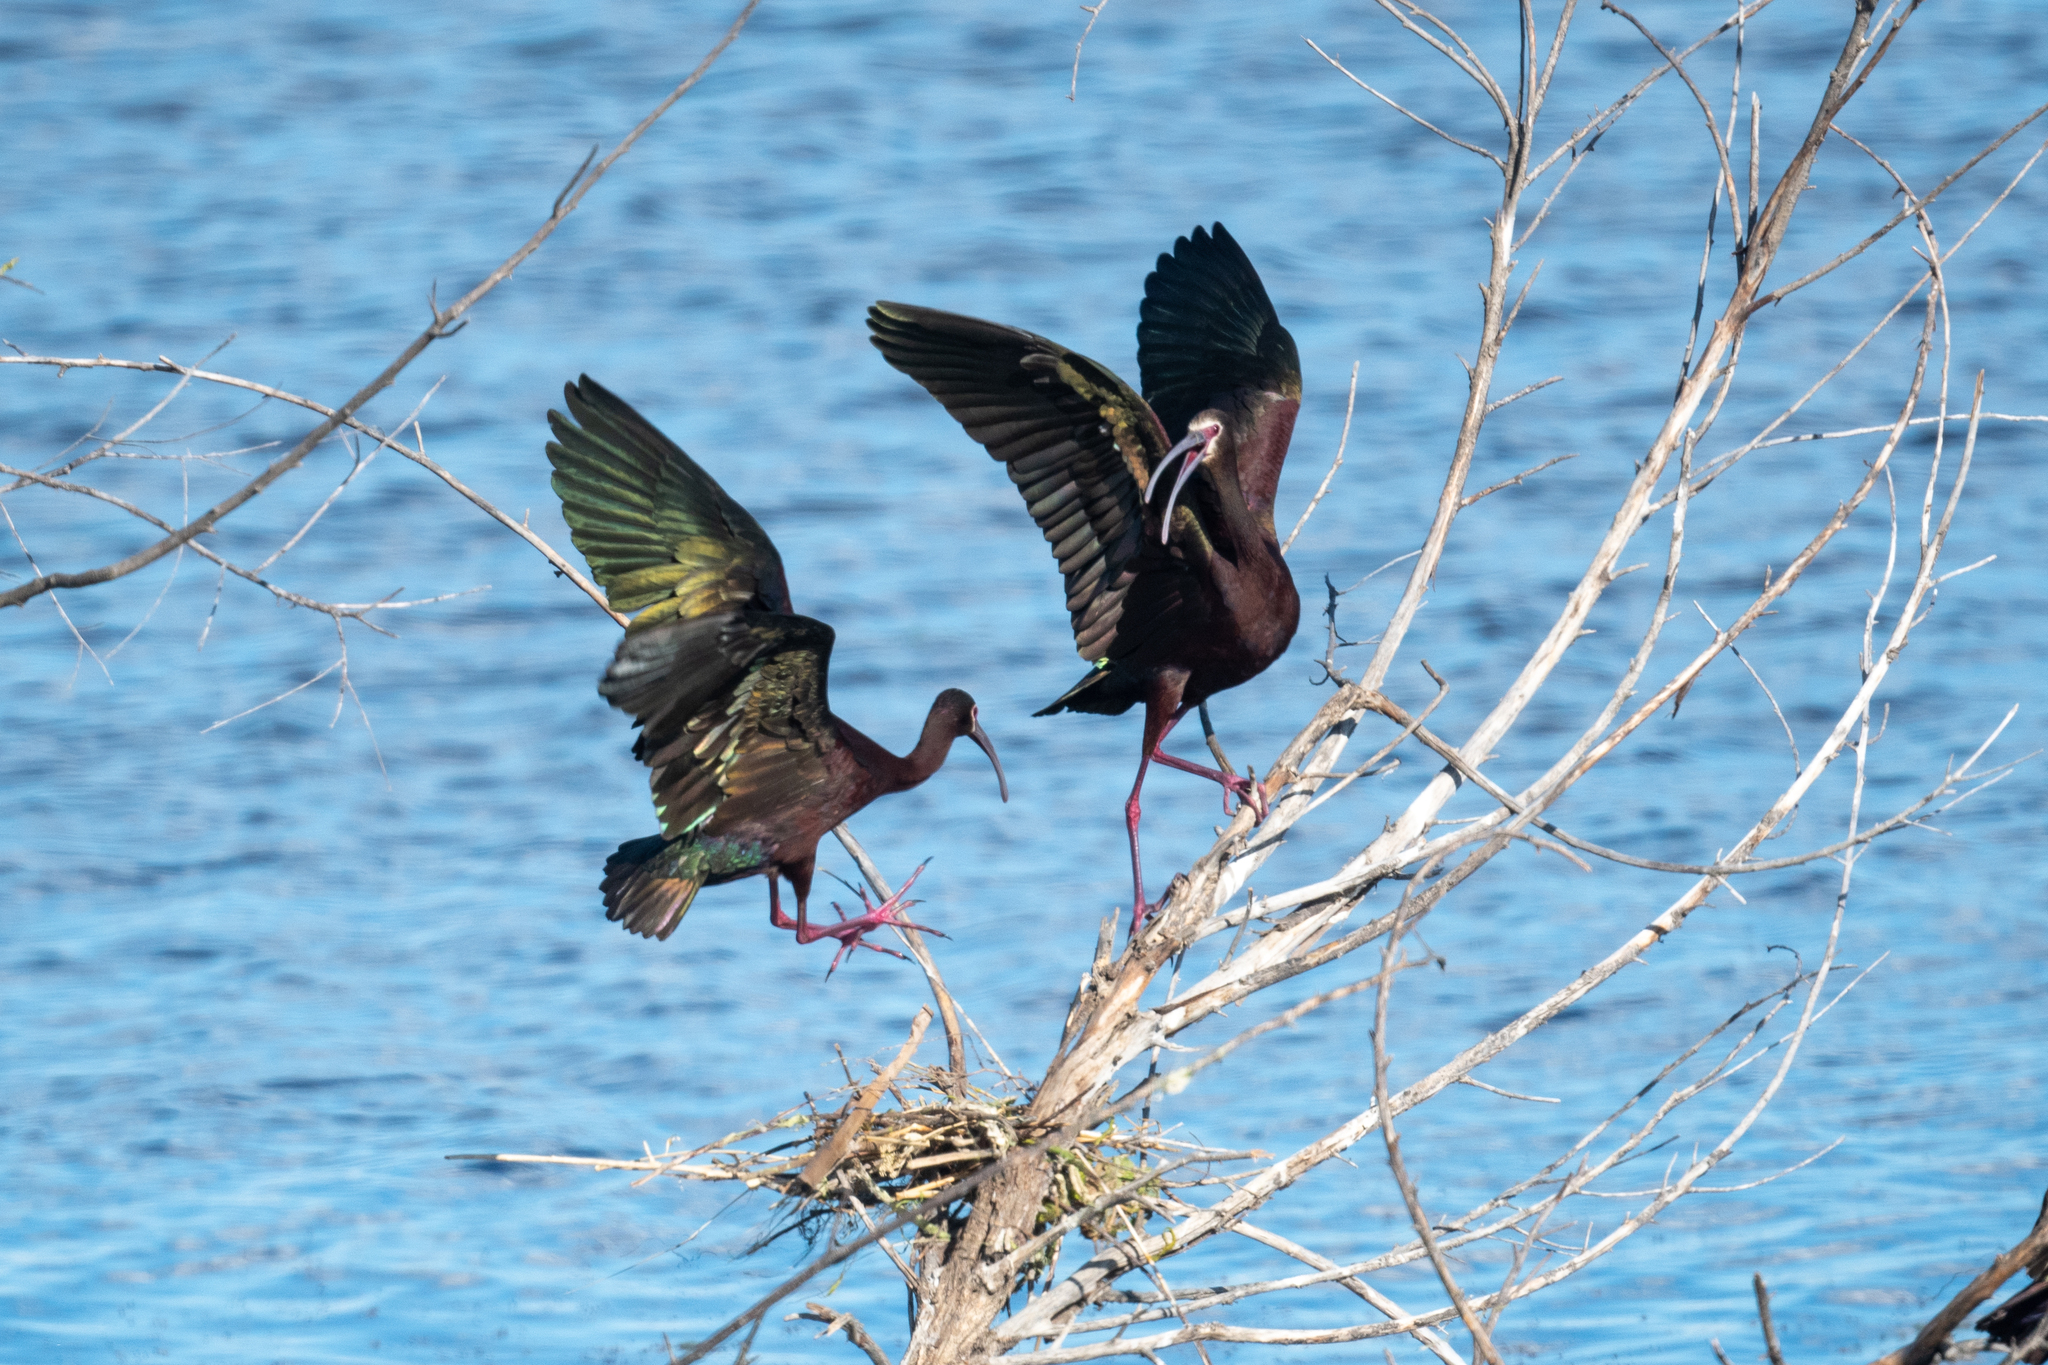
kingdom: Animalia
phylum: Chordata
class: Aves
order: Pelecaniformes
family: Threskiornithidae
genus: Plegadis
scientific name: Plegadis chihi
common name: White-faced ibis
